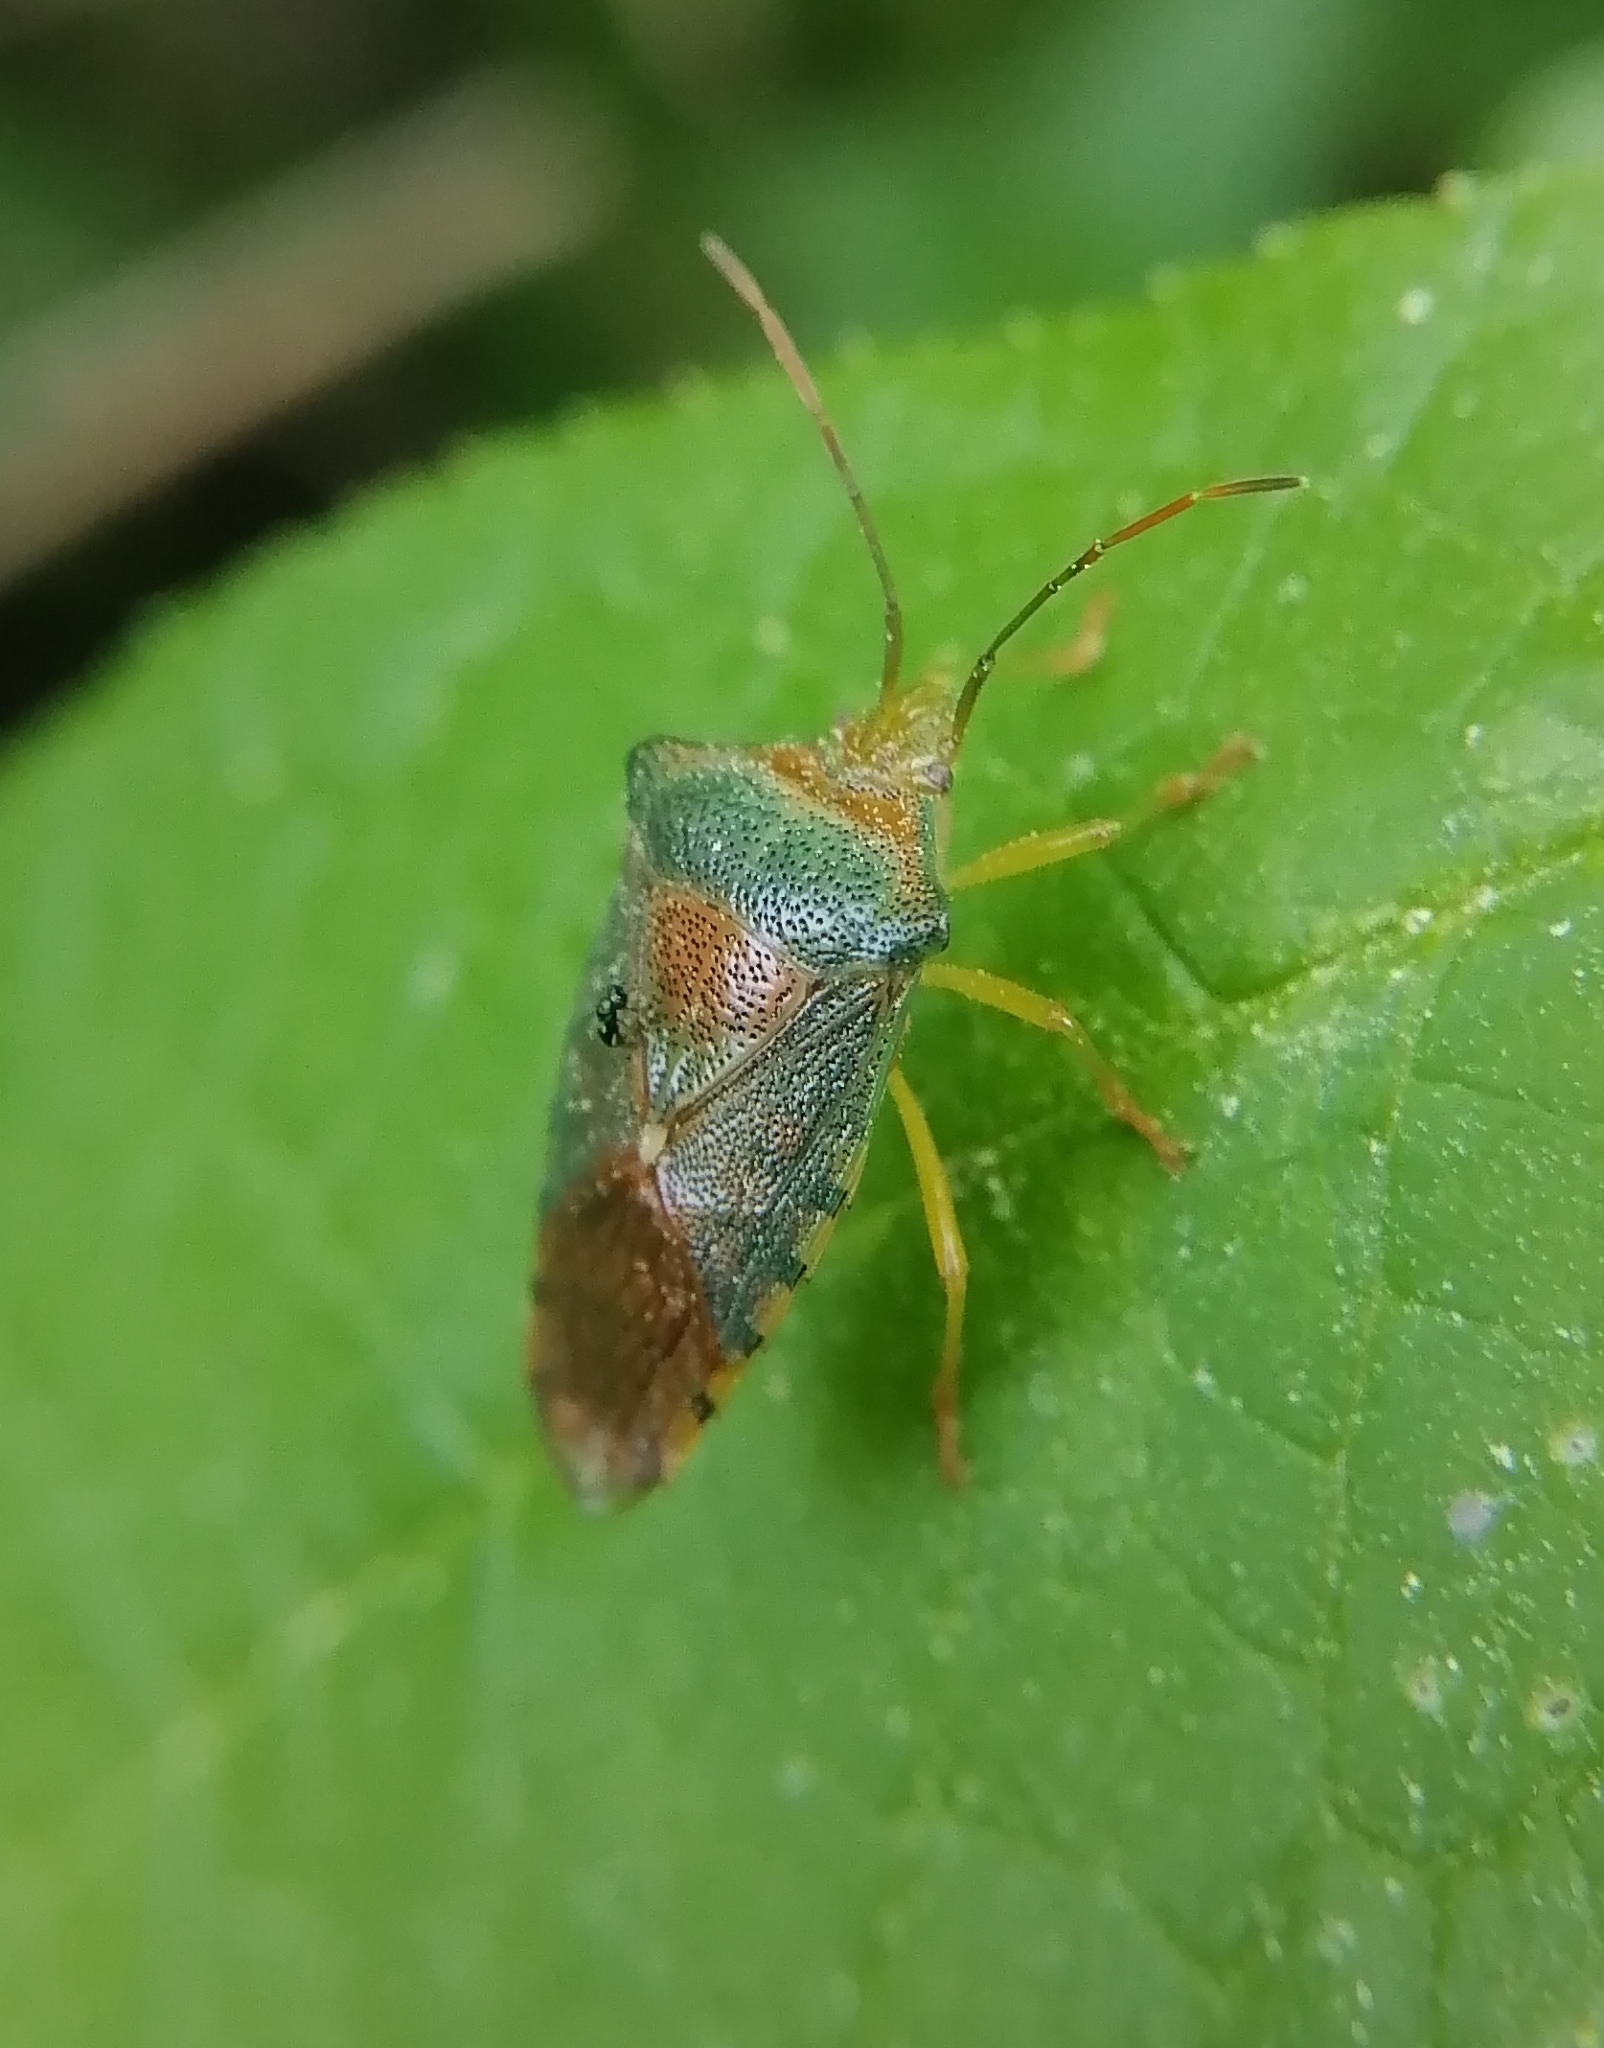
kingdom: Animalia
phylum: Arthropoda
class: Insecta
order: Hemiptera
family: Acanthosomatidae
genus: Acanthosoma
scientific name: Acanthosoma denticaudum
